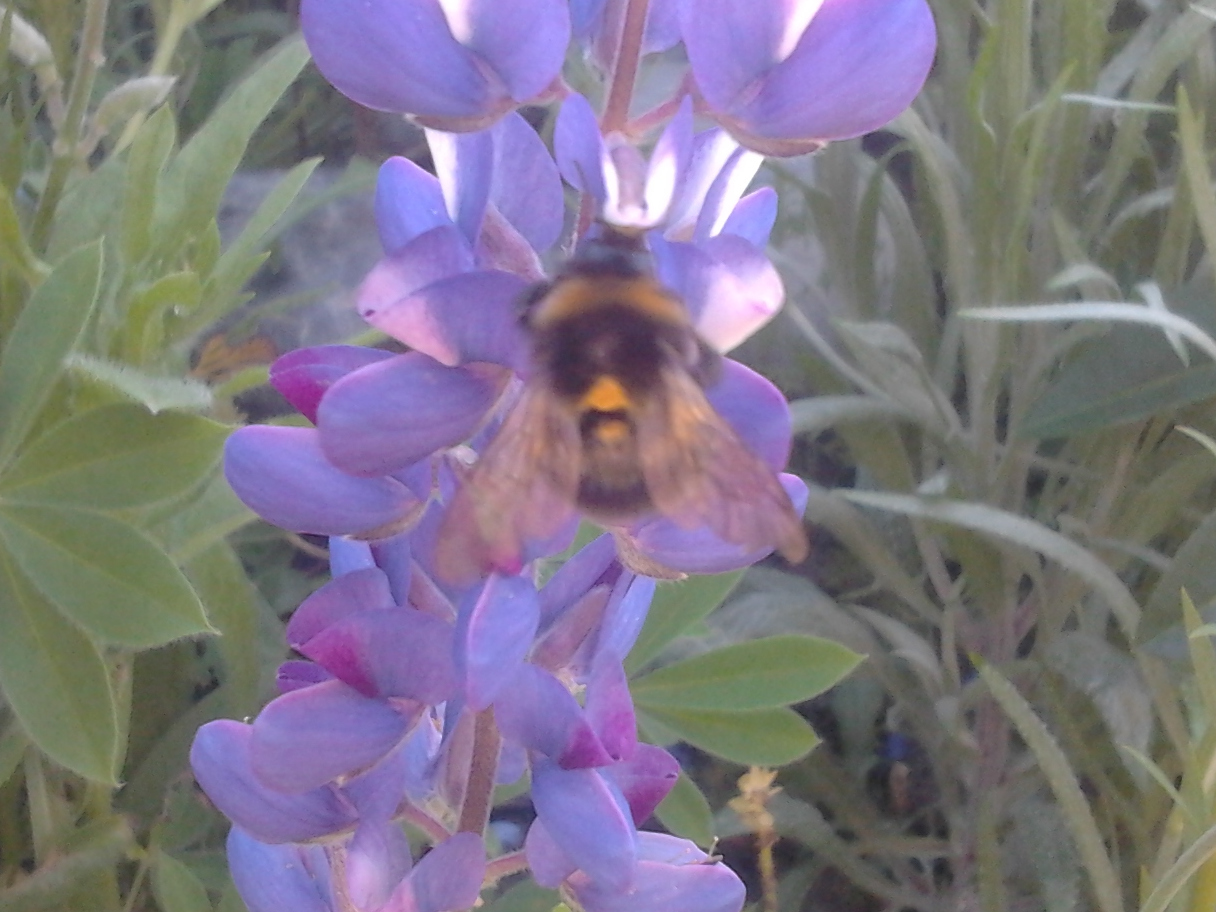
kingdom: Animalia
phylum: Arthropoda
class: Insecta
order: Hymenoptera
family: Apidae
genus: Bombus
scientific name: Bombus terrestris
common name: Buff-tailed bumblebee
